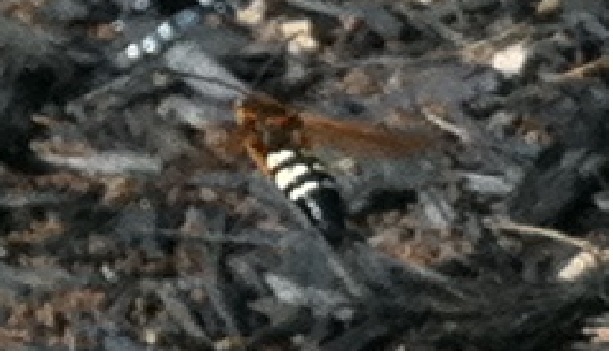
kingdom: Animalia
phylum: Arthropoda
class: Insecta
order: Hymenoptera
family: Crabronidae
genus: Sphecius
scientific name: Sphecius speciosus
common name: Cicada killer
